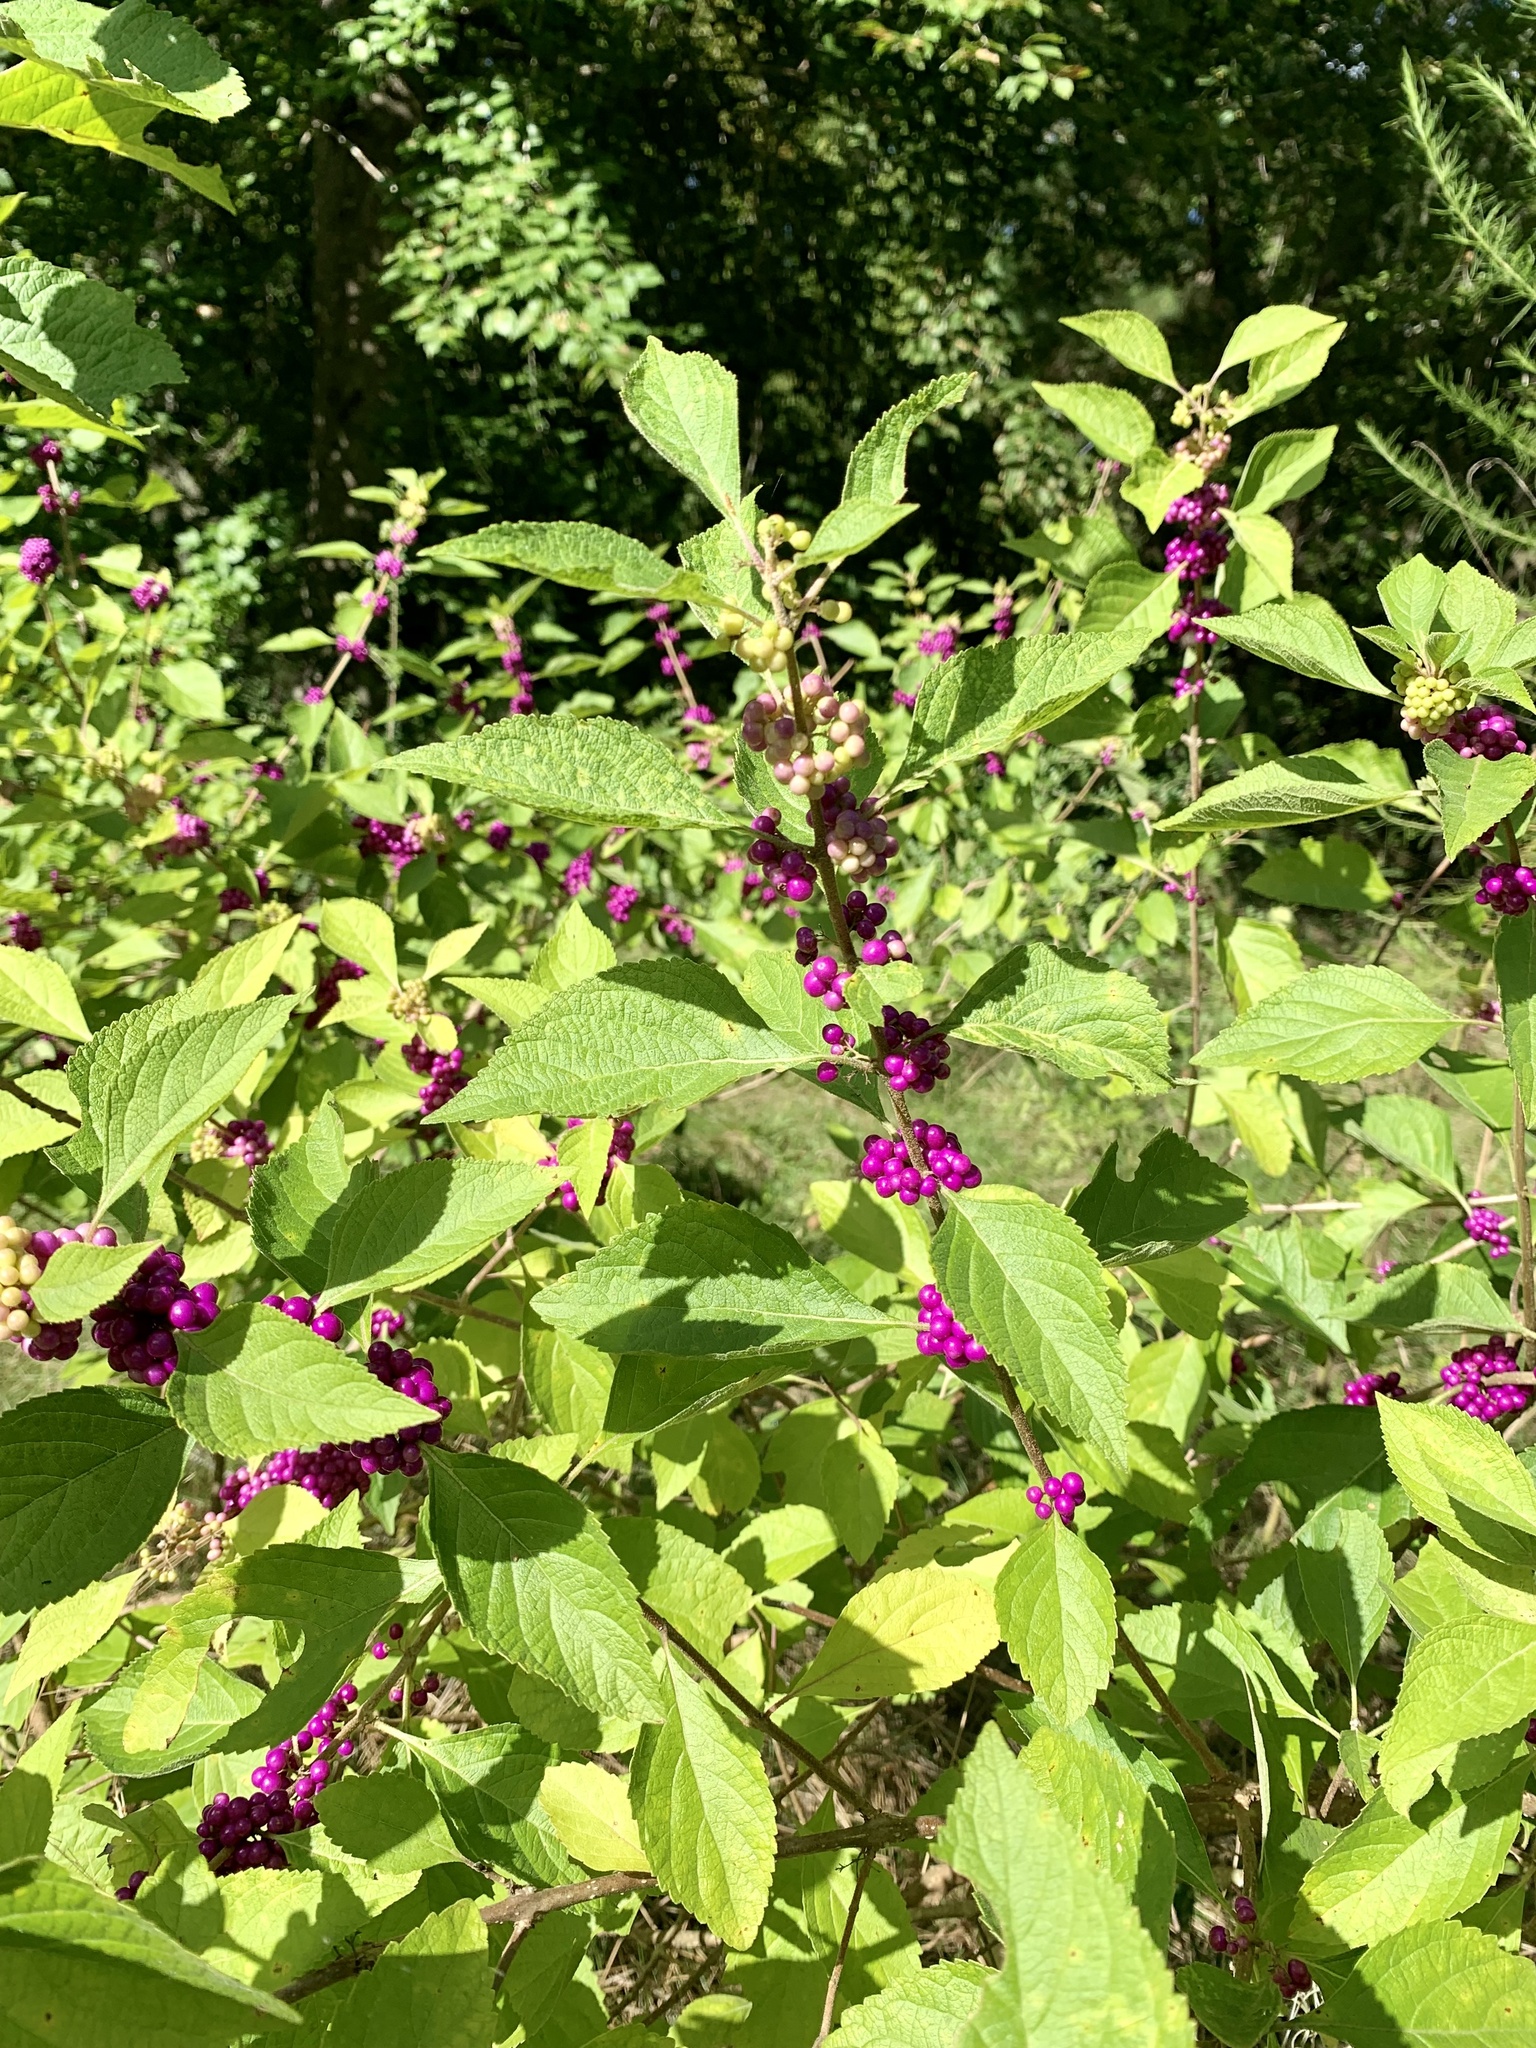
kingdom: Plantae
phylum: Tracheophyta
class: Magnoliopsida
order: Lamiales
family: Lamiaceae
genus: Callicarpa
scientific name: Callicarpa americana
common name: American beautyberry
